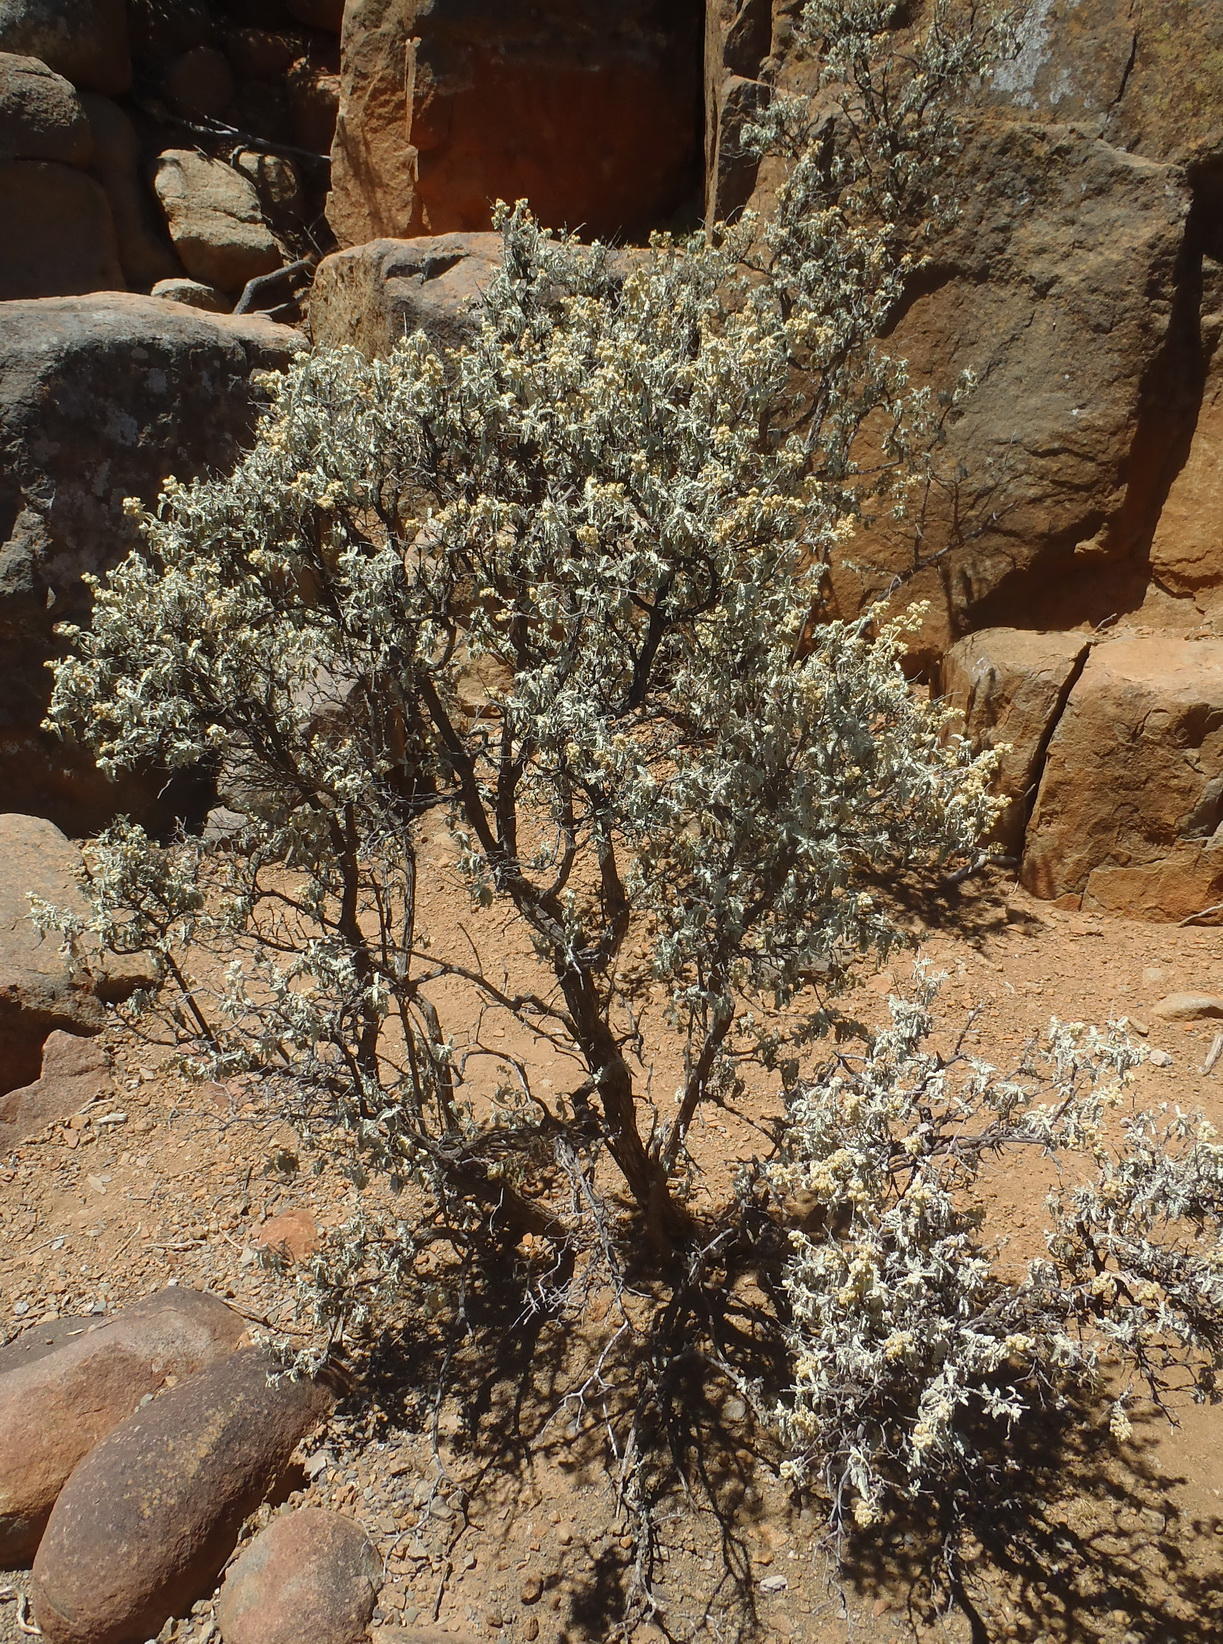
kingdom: Plantae
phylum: Tracheophyta
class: Magnoliopsida
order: Lamiales
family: Scrophulariaceae
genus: Buddleja
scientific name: Buddleja glomerata
